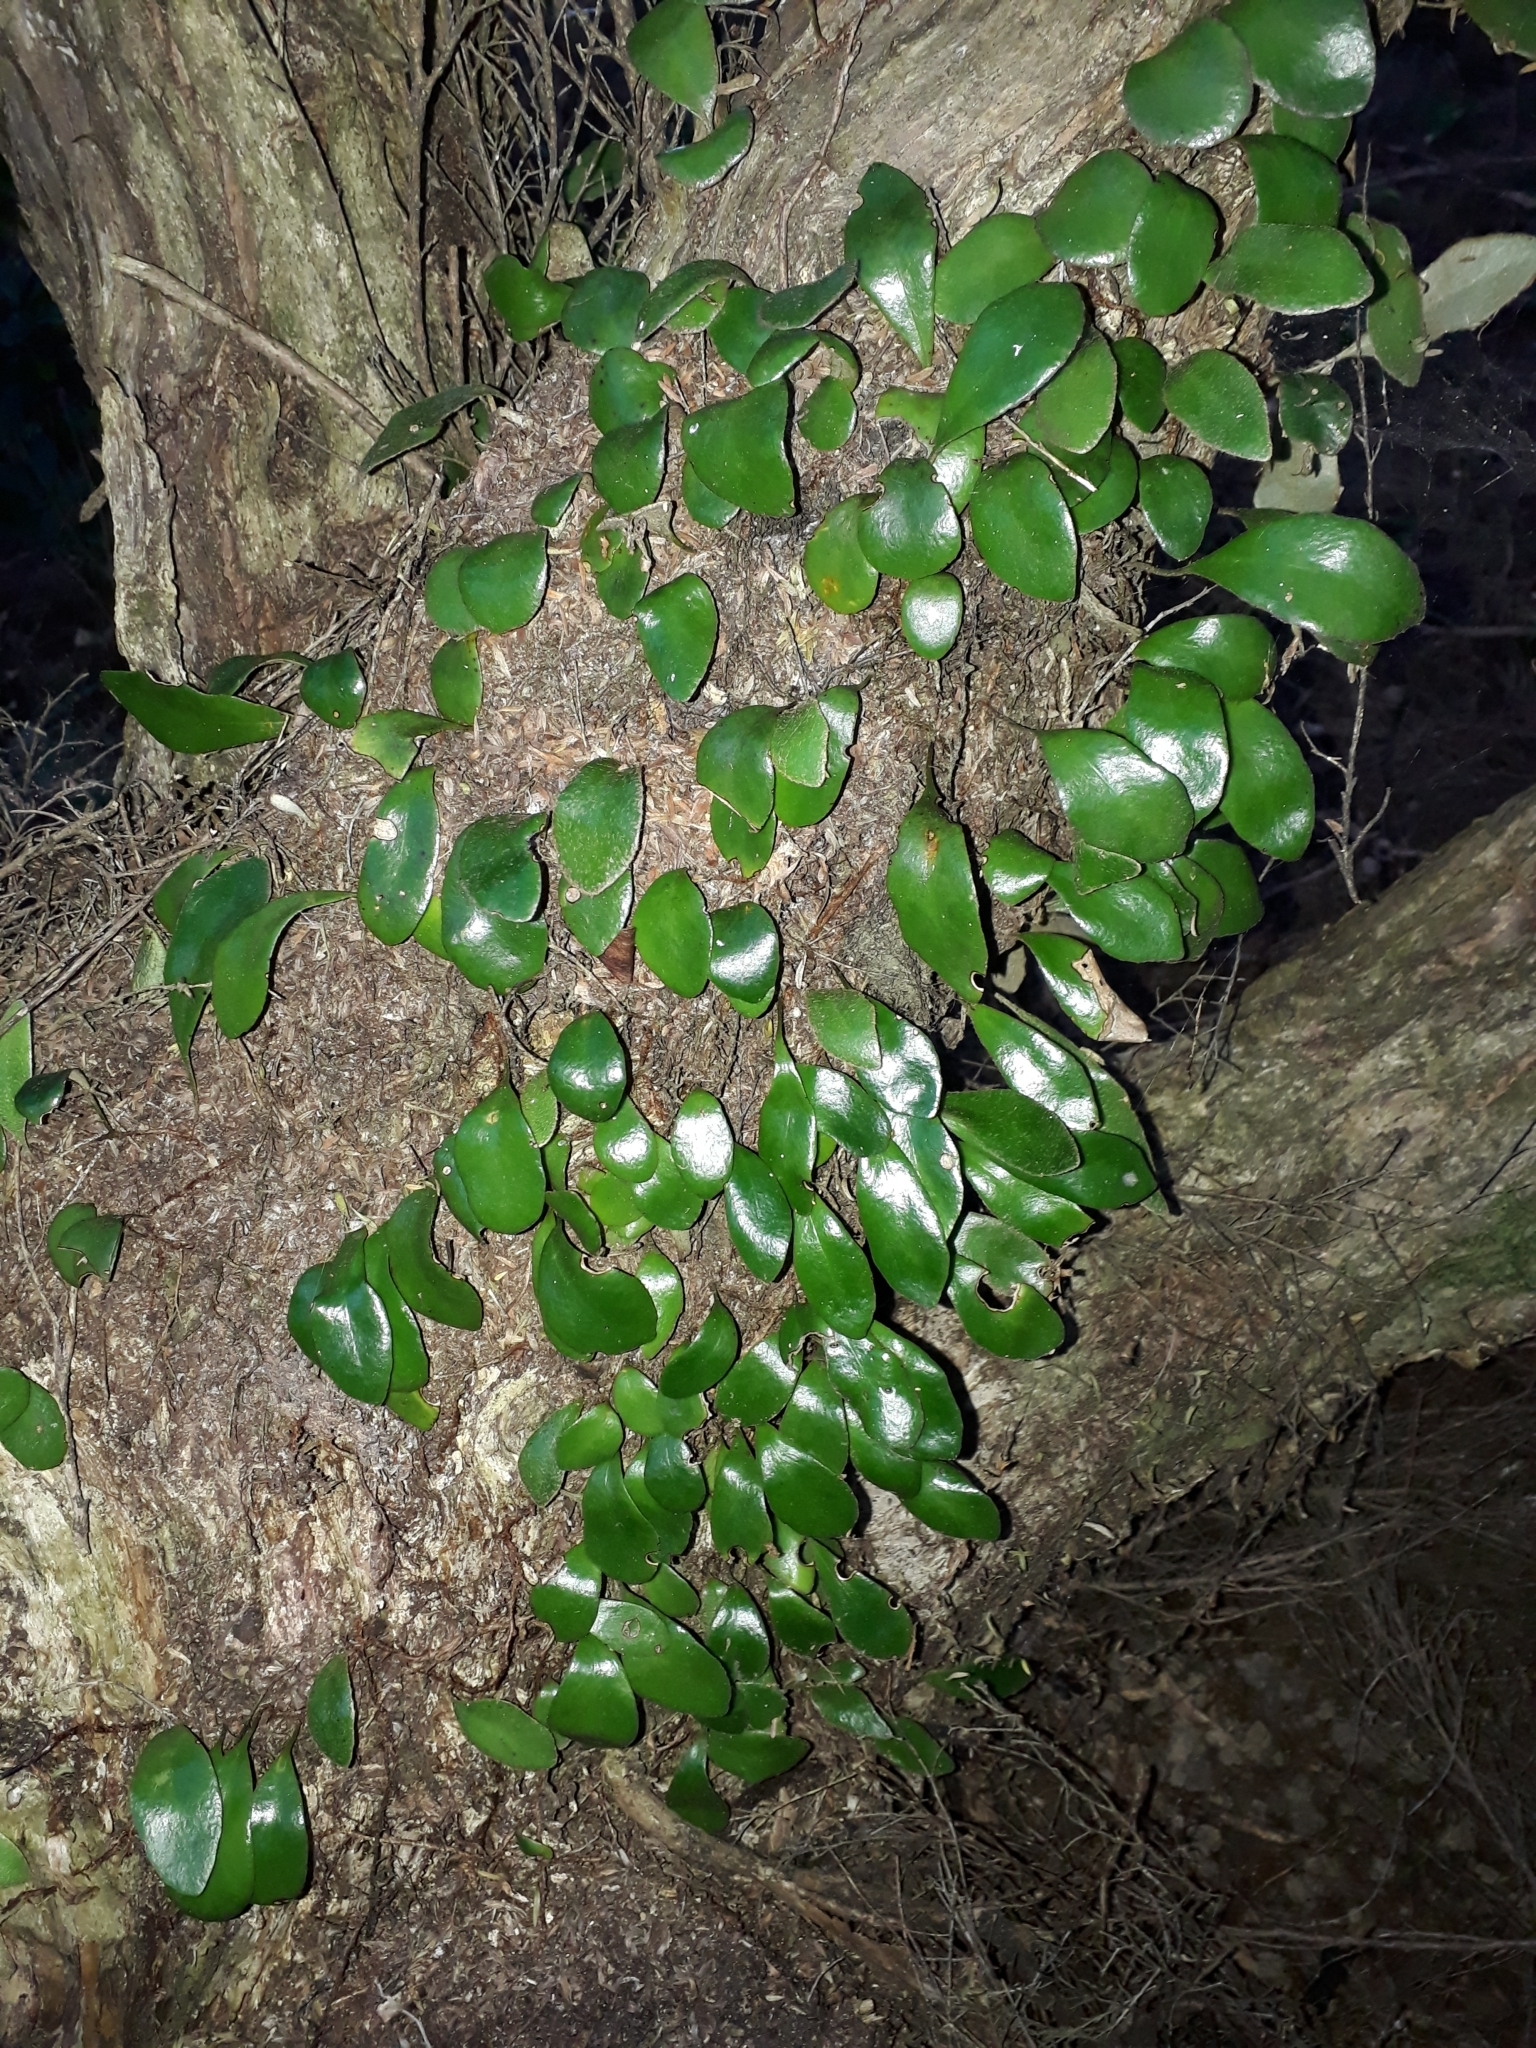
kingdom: Plantae
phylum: Tracheophyta
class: Polypodiopsida
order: Polypodiales
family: Polypodiaceae
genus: Pyrrosia
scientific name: Pyrrosia eleagnifolia
